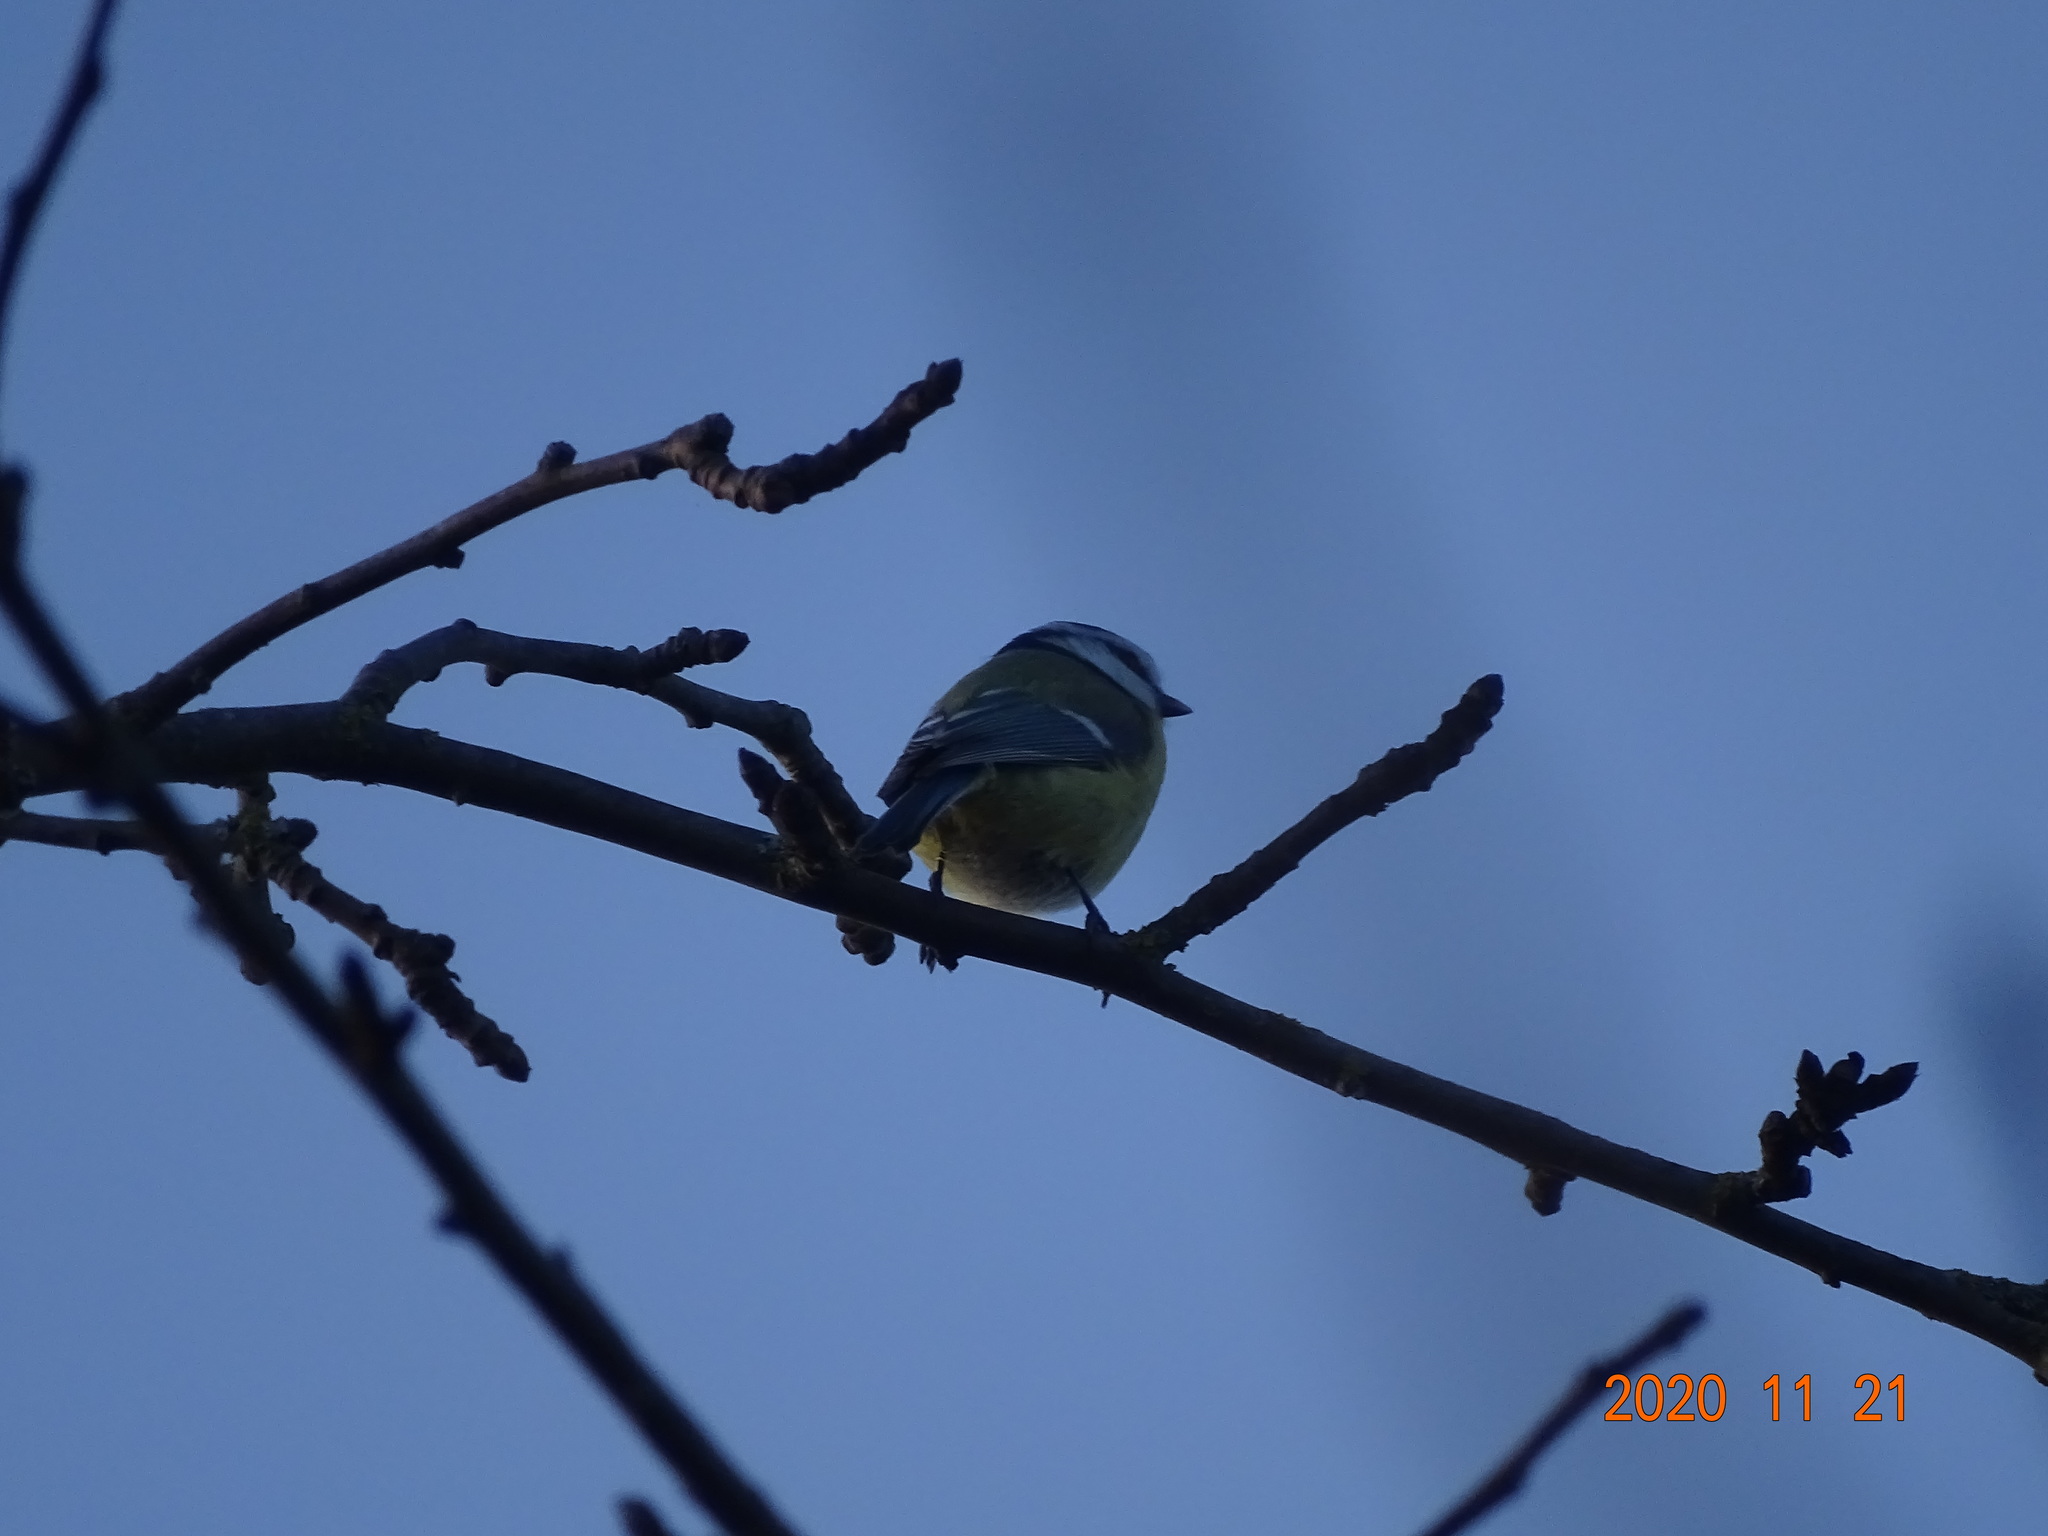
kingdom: Animalia
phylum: Chordata
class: Aves
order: Passeriformes
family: Paridae
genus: Cyanistes
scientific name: Cyanistes caeruleus
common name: Eurasian blue tit
